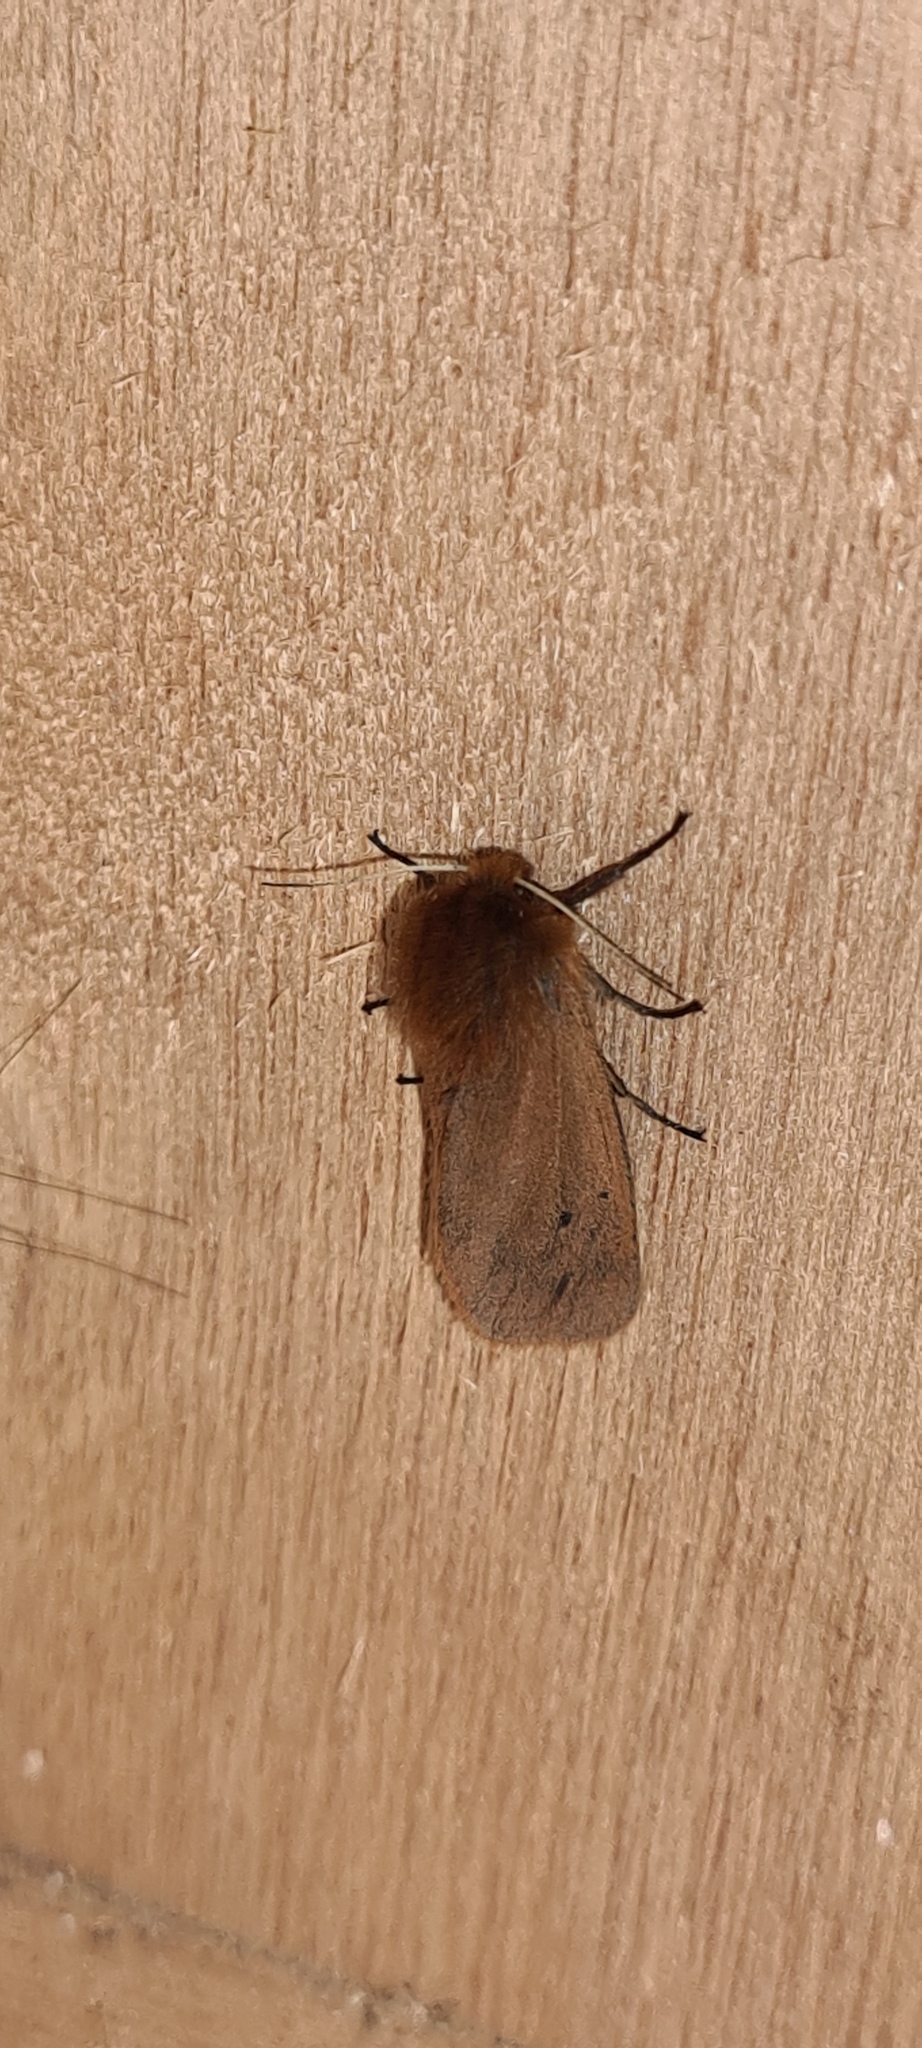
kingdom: Animalia
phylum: Arthropoda
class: Insecta
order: Lepidoptera
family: Erebidae
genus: Phragmatobia
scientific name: Phragmatobia fuliginosa
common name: Ruby tiger
